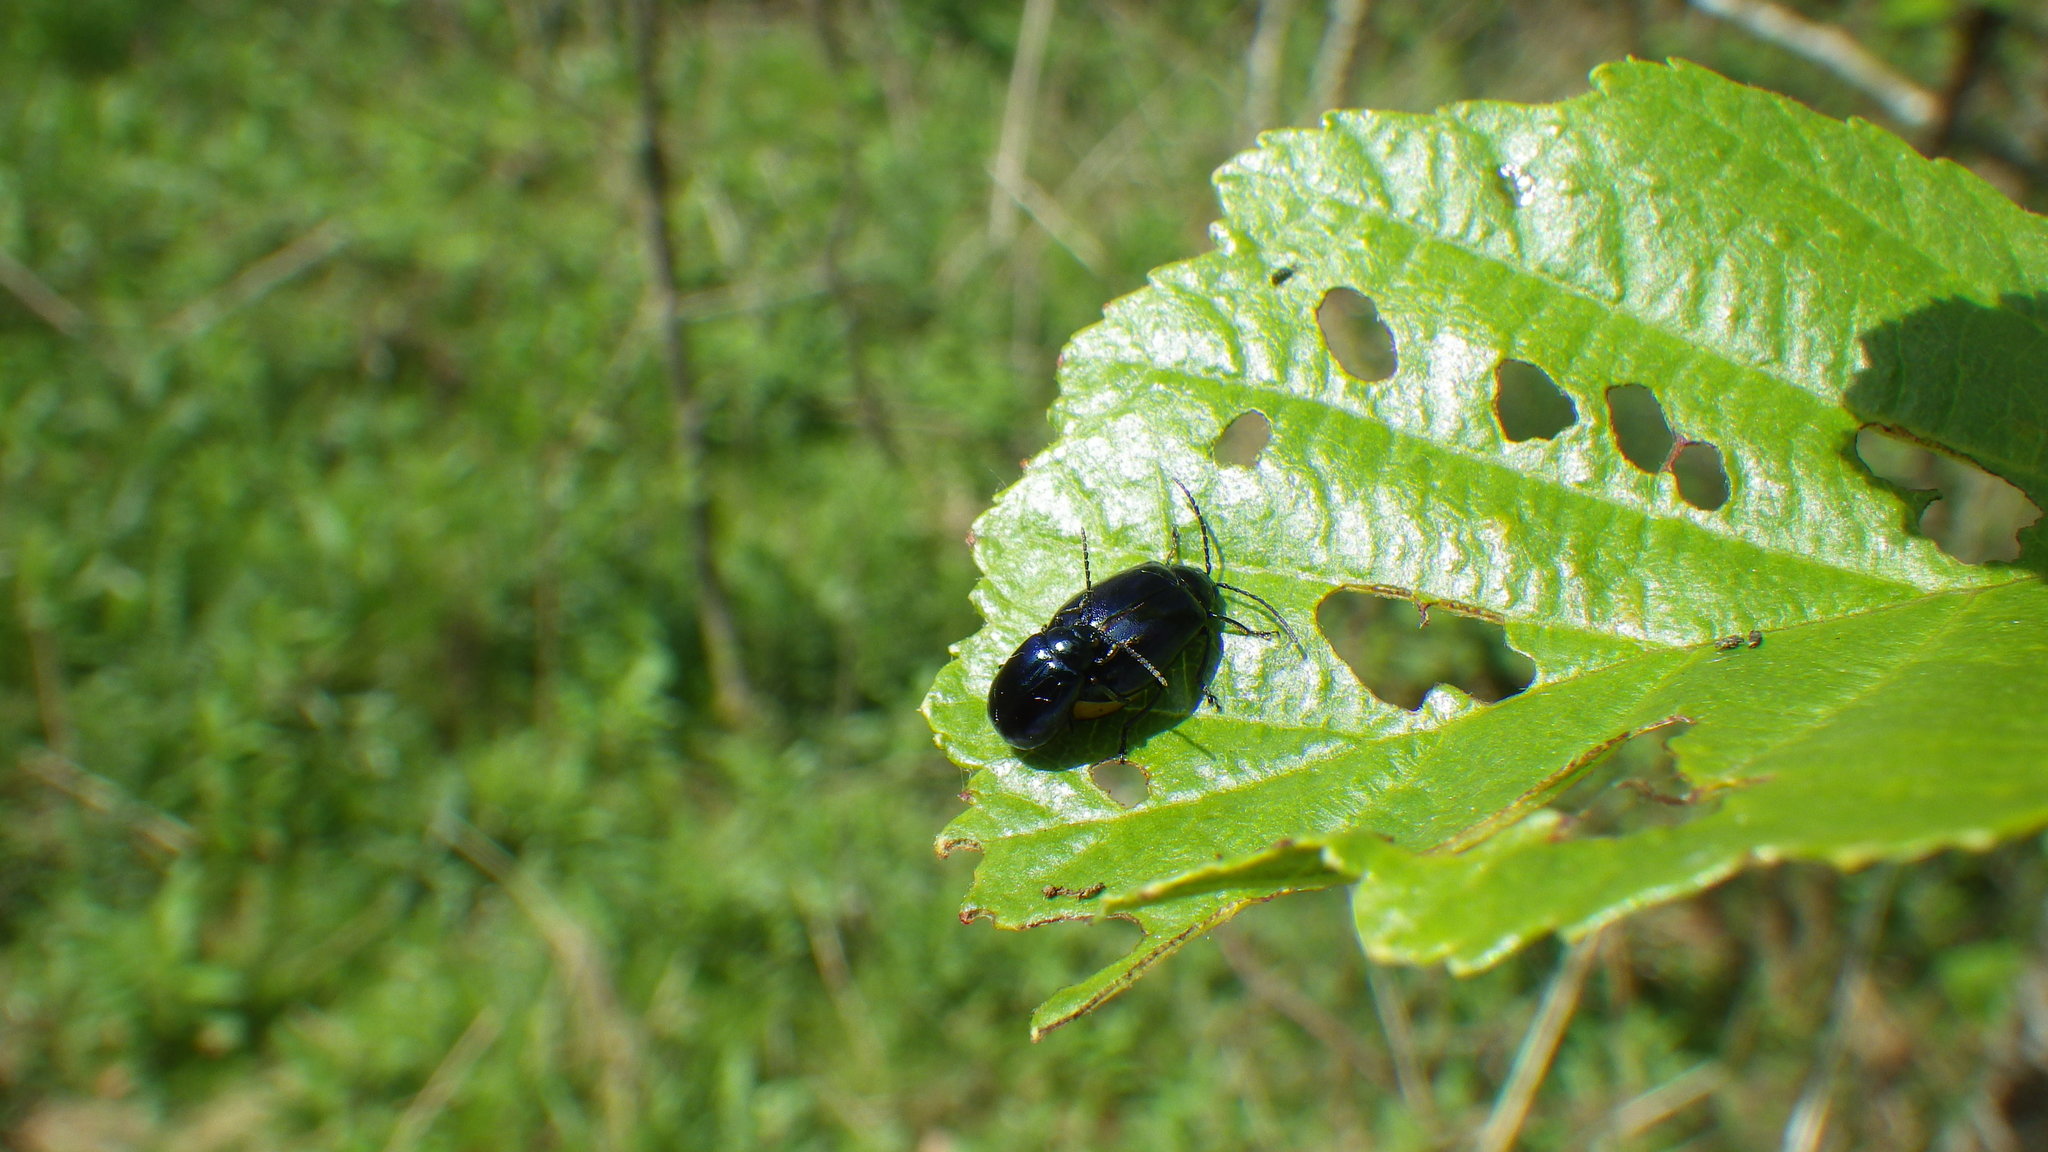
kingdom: Animalia
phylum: Arthropoda
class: Insecta
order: Coleoptera
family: Chrysomelidae
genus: Agelastica
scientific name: Agelastica alni
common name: Alder leaf beetle
